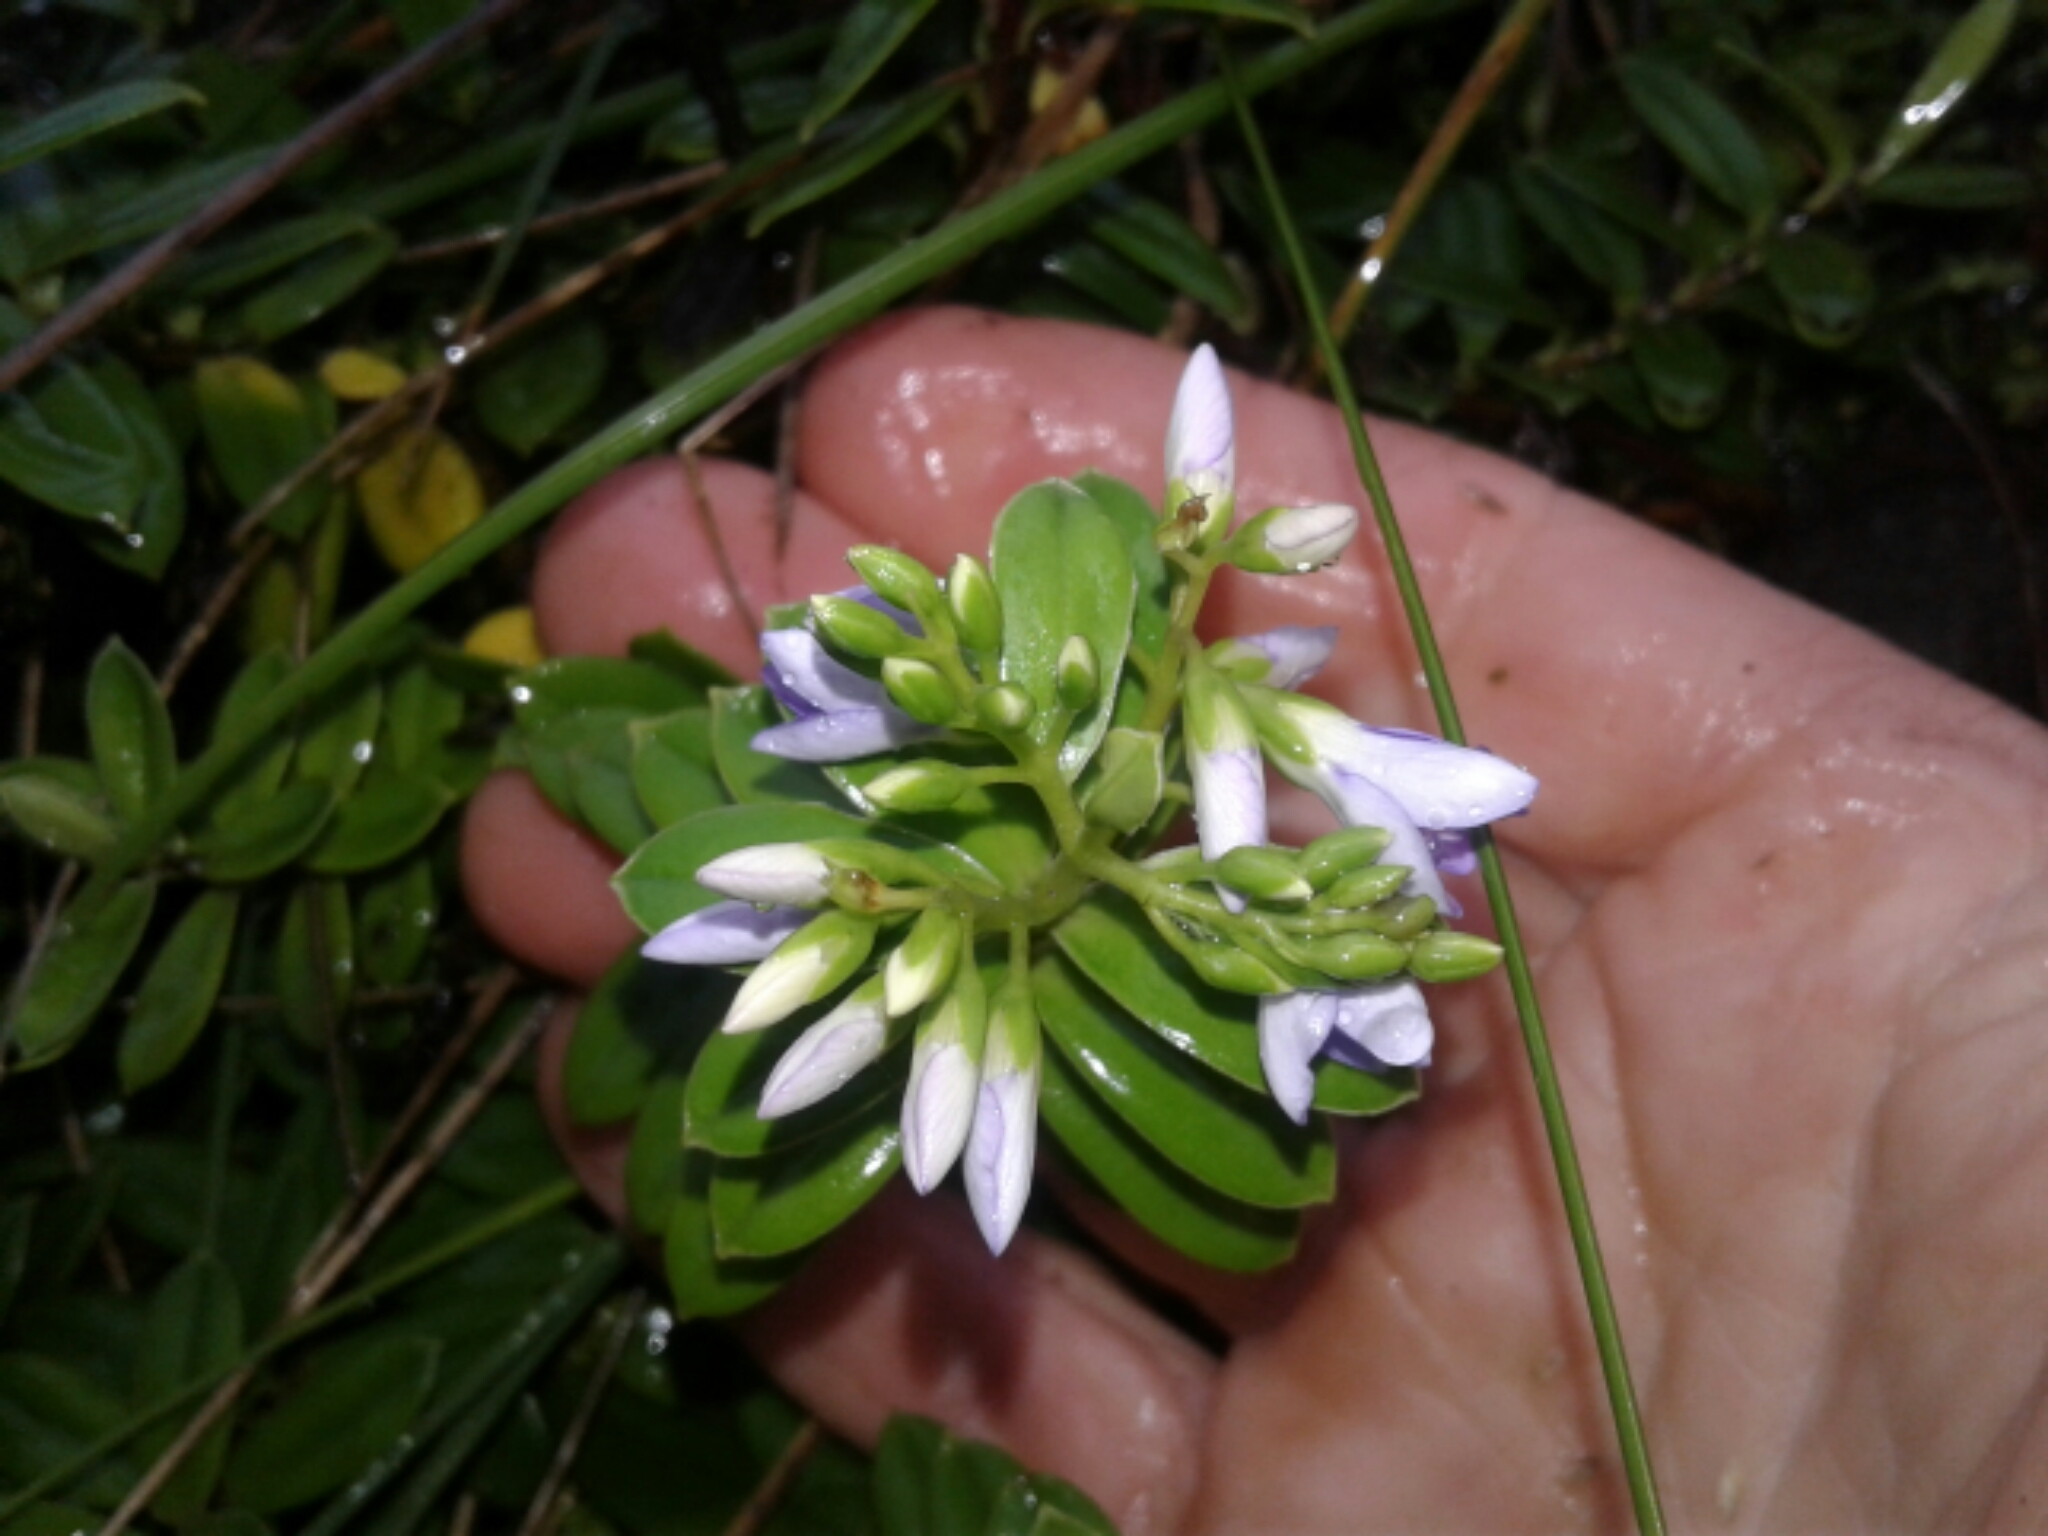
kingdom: Plantae
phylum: Tracheophyta
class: Magnoliopsida
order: Lamiales
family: Plantaginaceae
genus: Veronica
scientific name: Veronica elliptica
